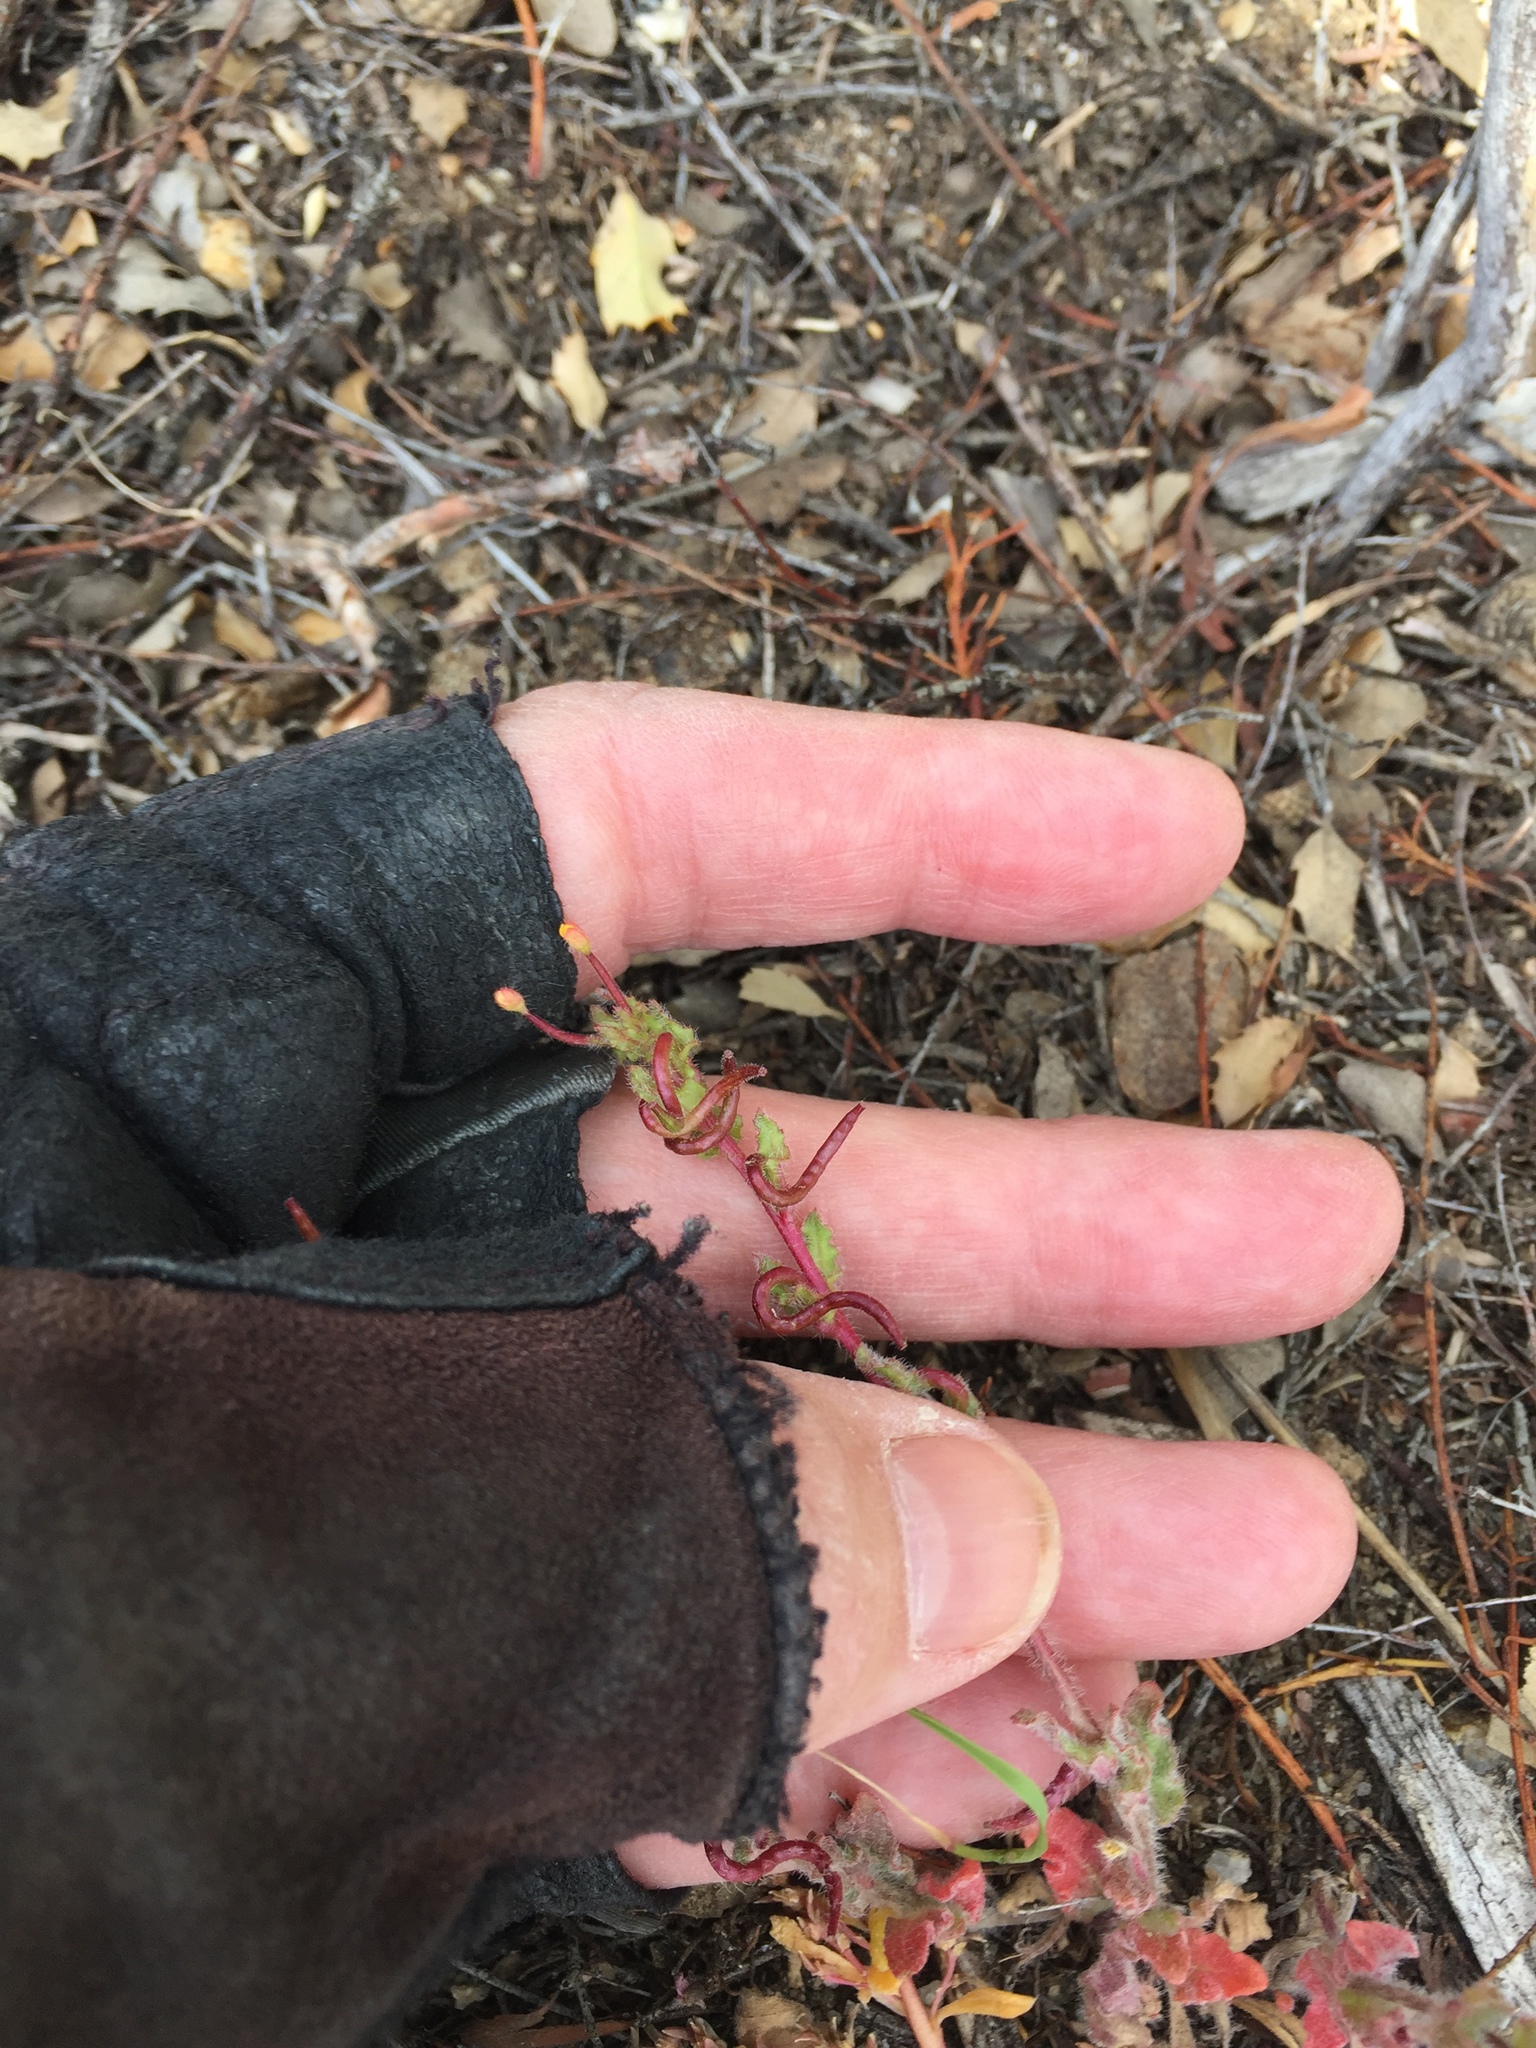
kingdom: Plantae
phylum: Tracheophyta
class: Magnoliopsida
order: Myrtales
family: Onagraceae
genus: Camissoniopsis
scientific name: Camissoniopsis confusa
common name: San bernardino suncup
